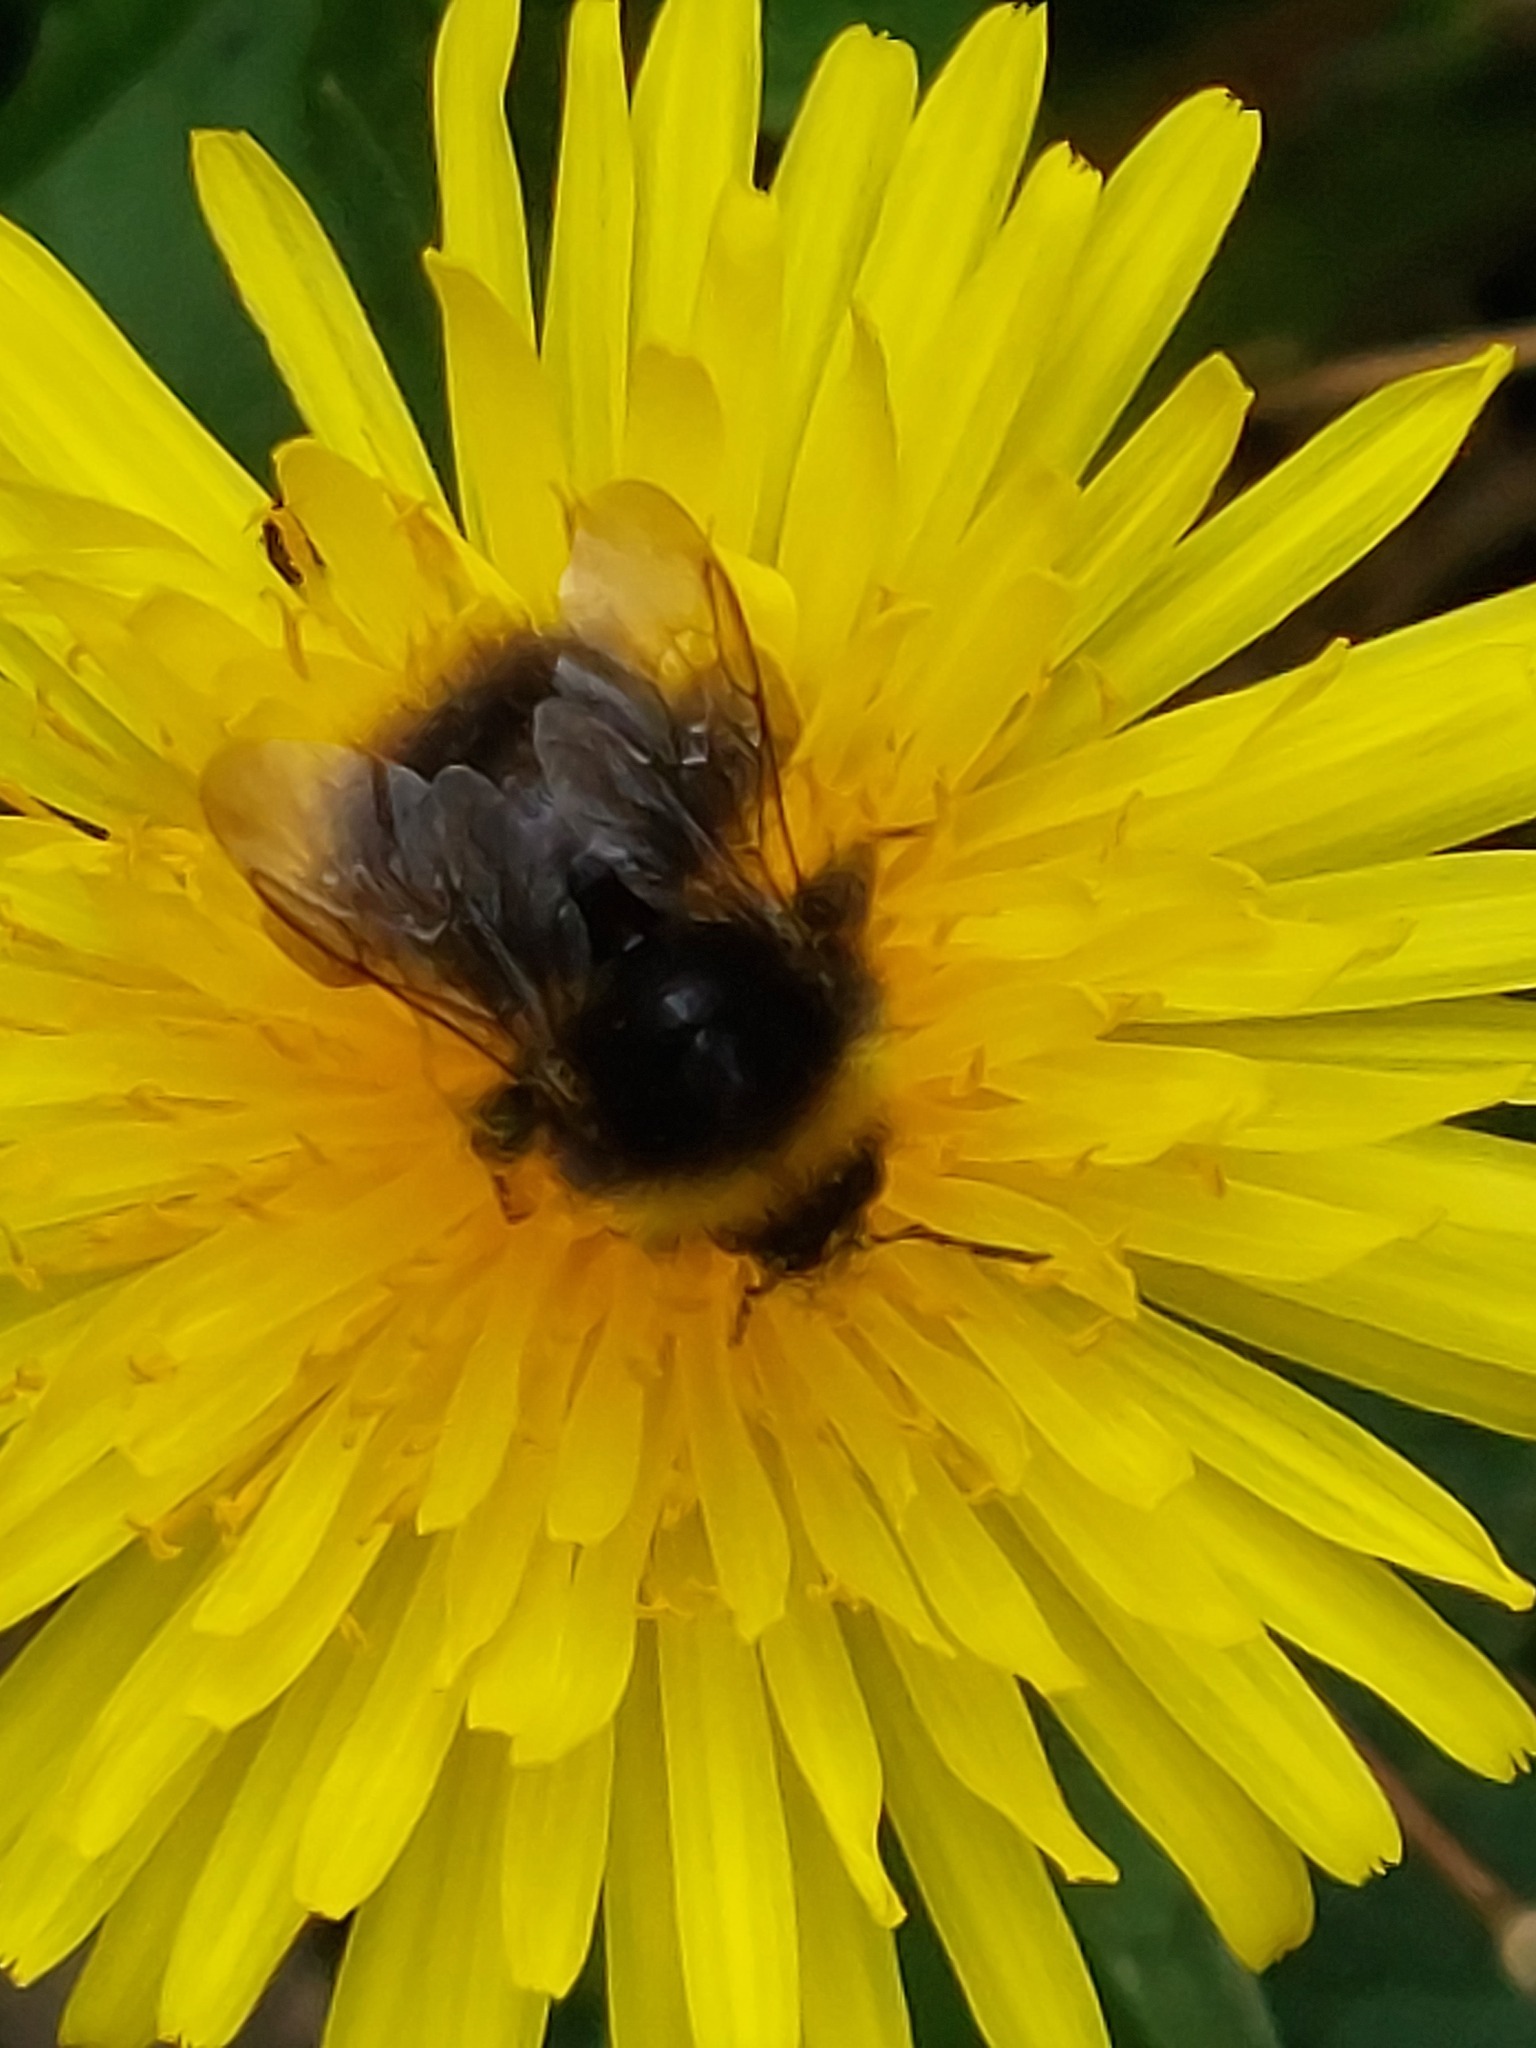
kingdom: Animalia
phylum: Arthropoda
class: Insecta
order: Hymenoptera
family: Apidae
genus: Bombus
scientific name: Bombus pratorum
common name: Early humble-bee
